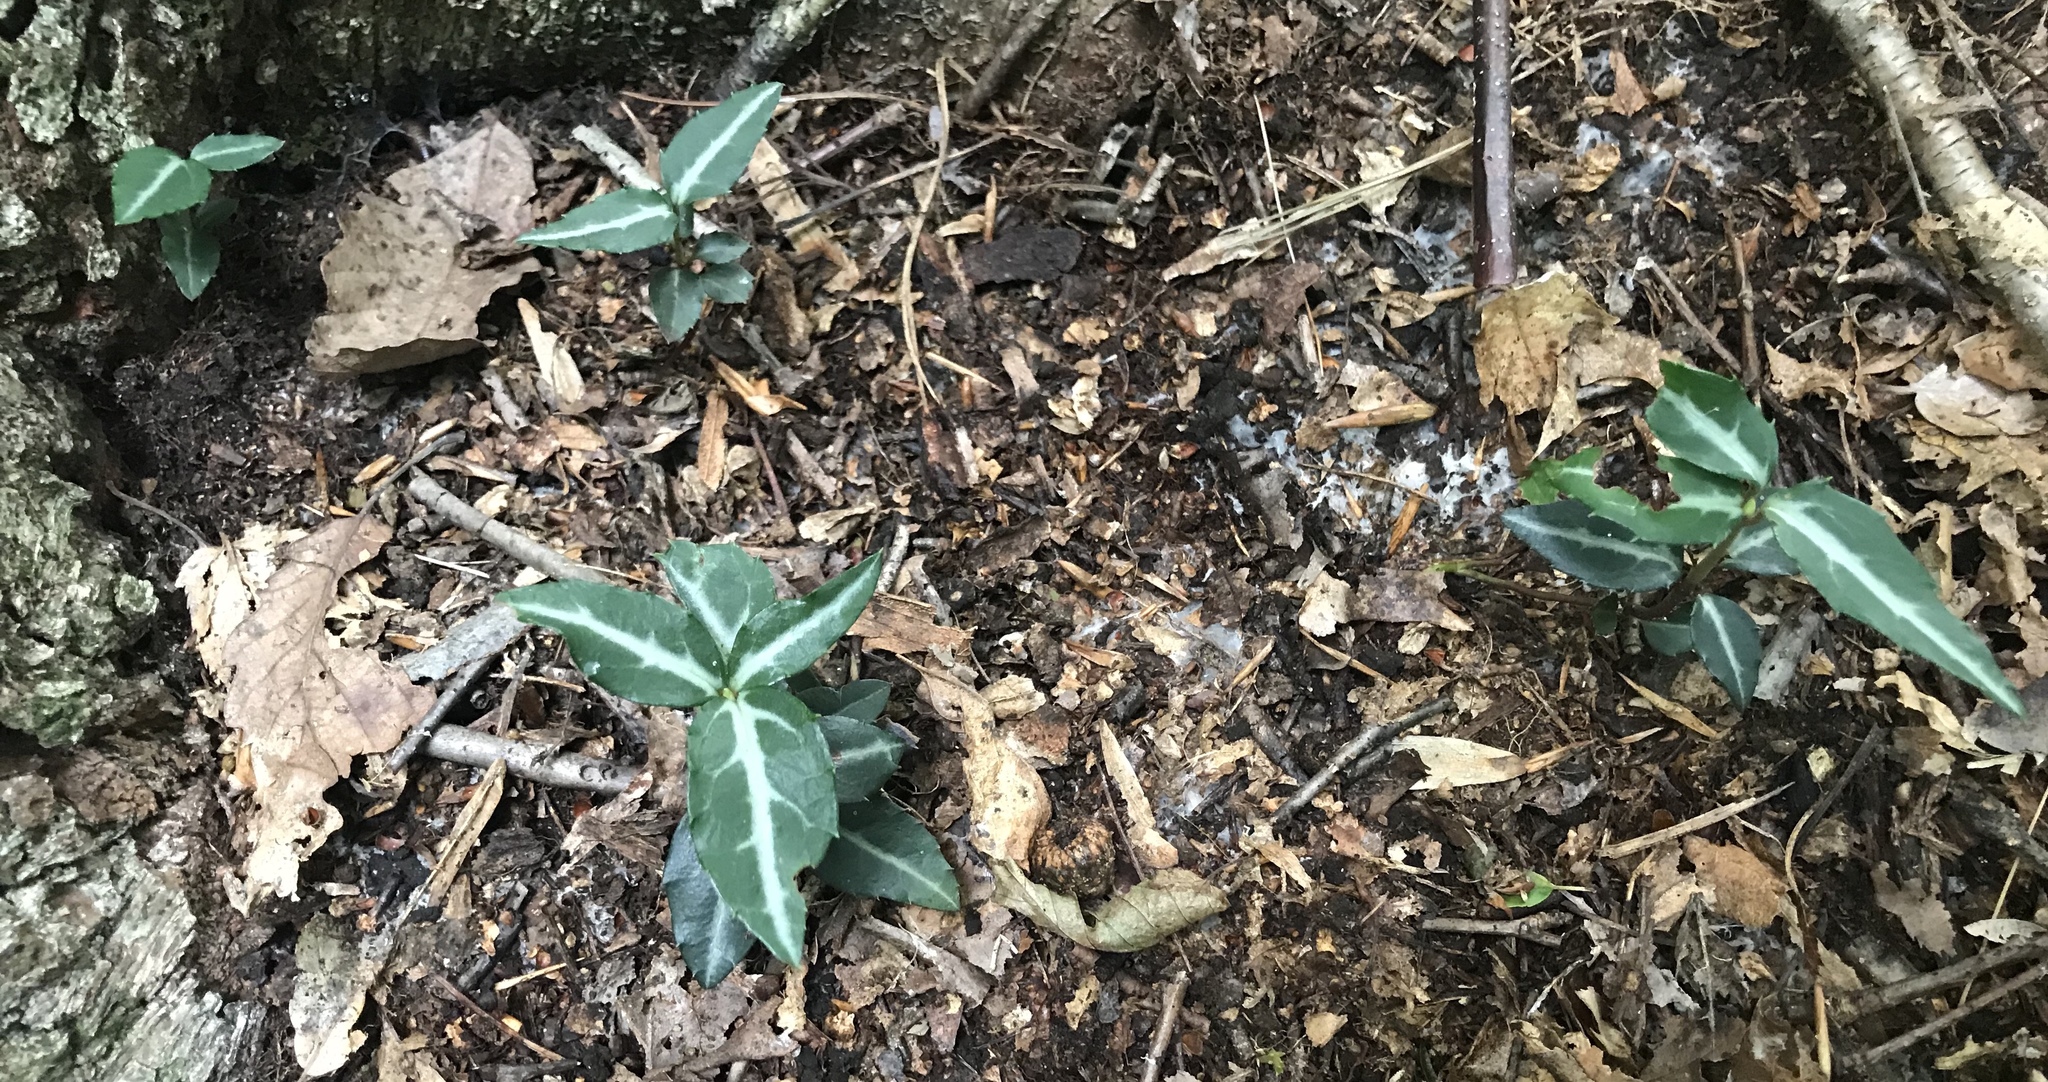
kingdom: Plantae
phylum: Tracheophyta
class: Magnoliopsida
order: Ericales
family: Ericaceae
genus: Chimaphila
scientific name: Chimaphila maculata
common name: Spotted pipsissewa
